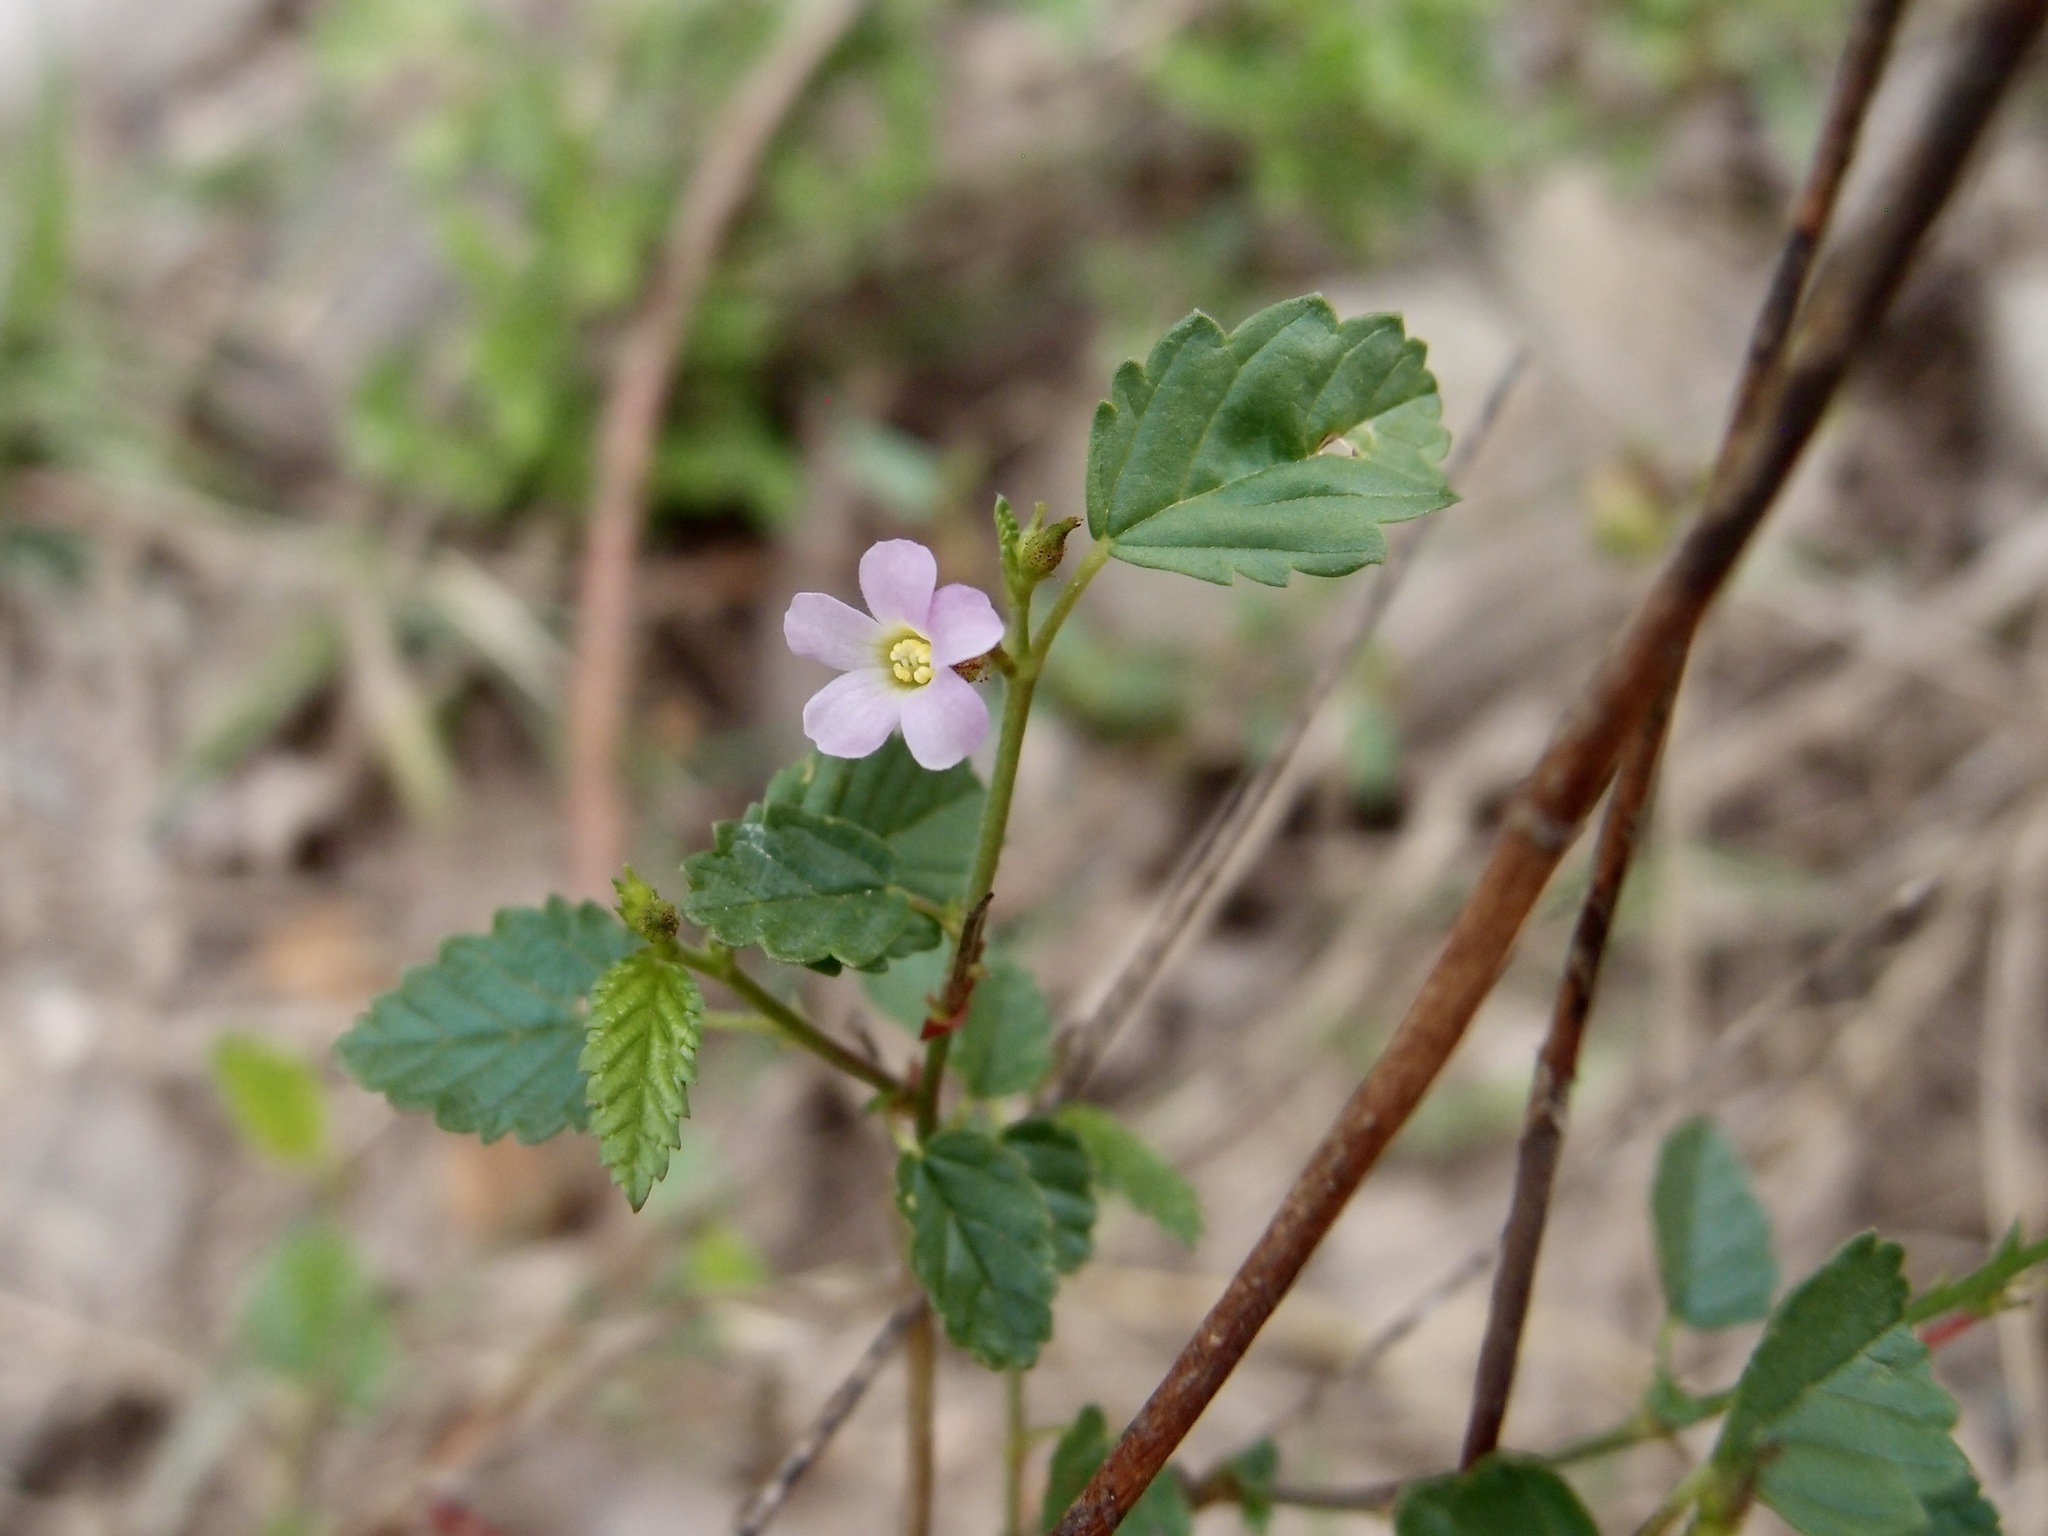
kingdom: Plantae
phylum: Tracheophyta
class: Magnoliopsida
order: Malvales
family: Malvaceae
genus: Melochia
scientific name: Melochia pyramidata
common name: Pyramidflower
